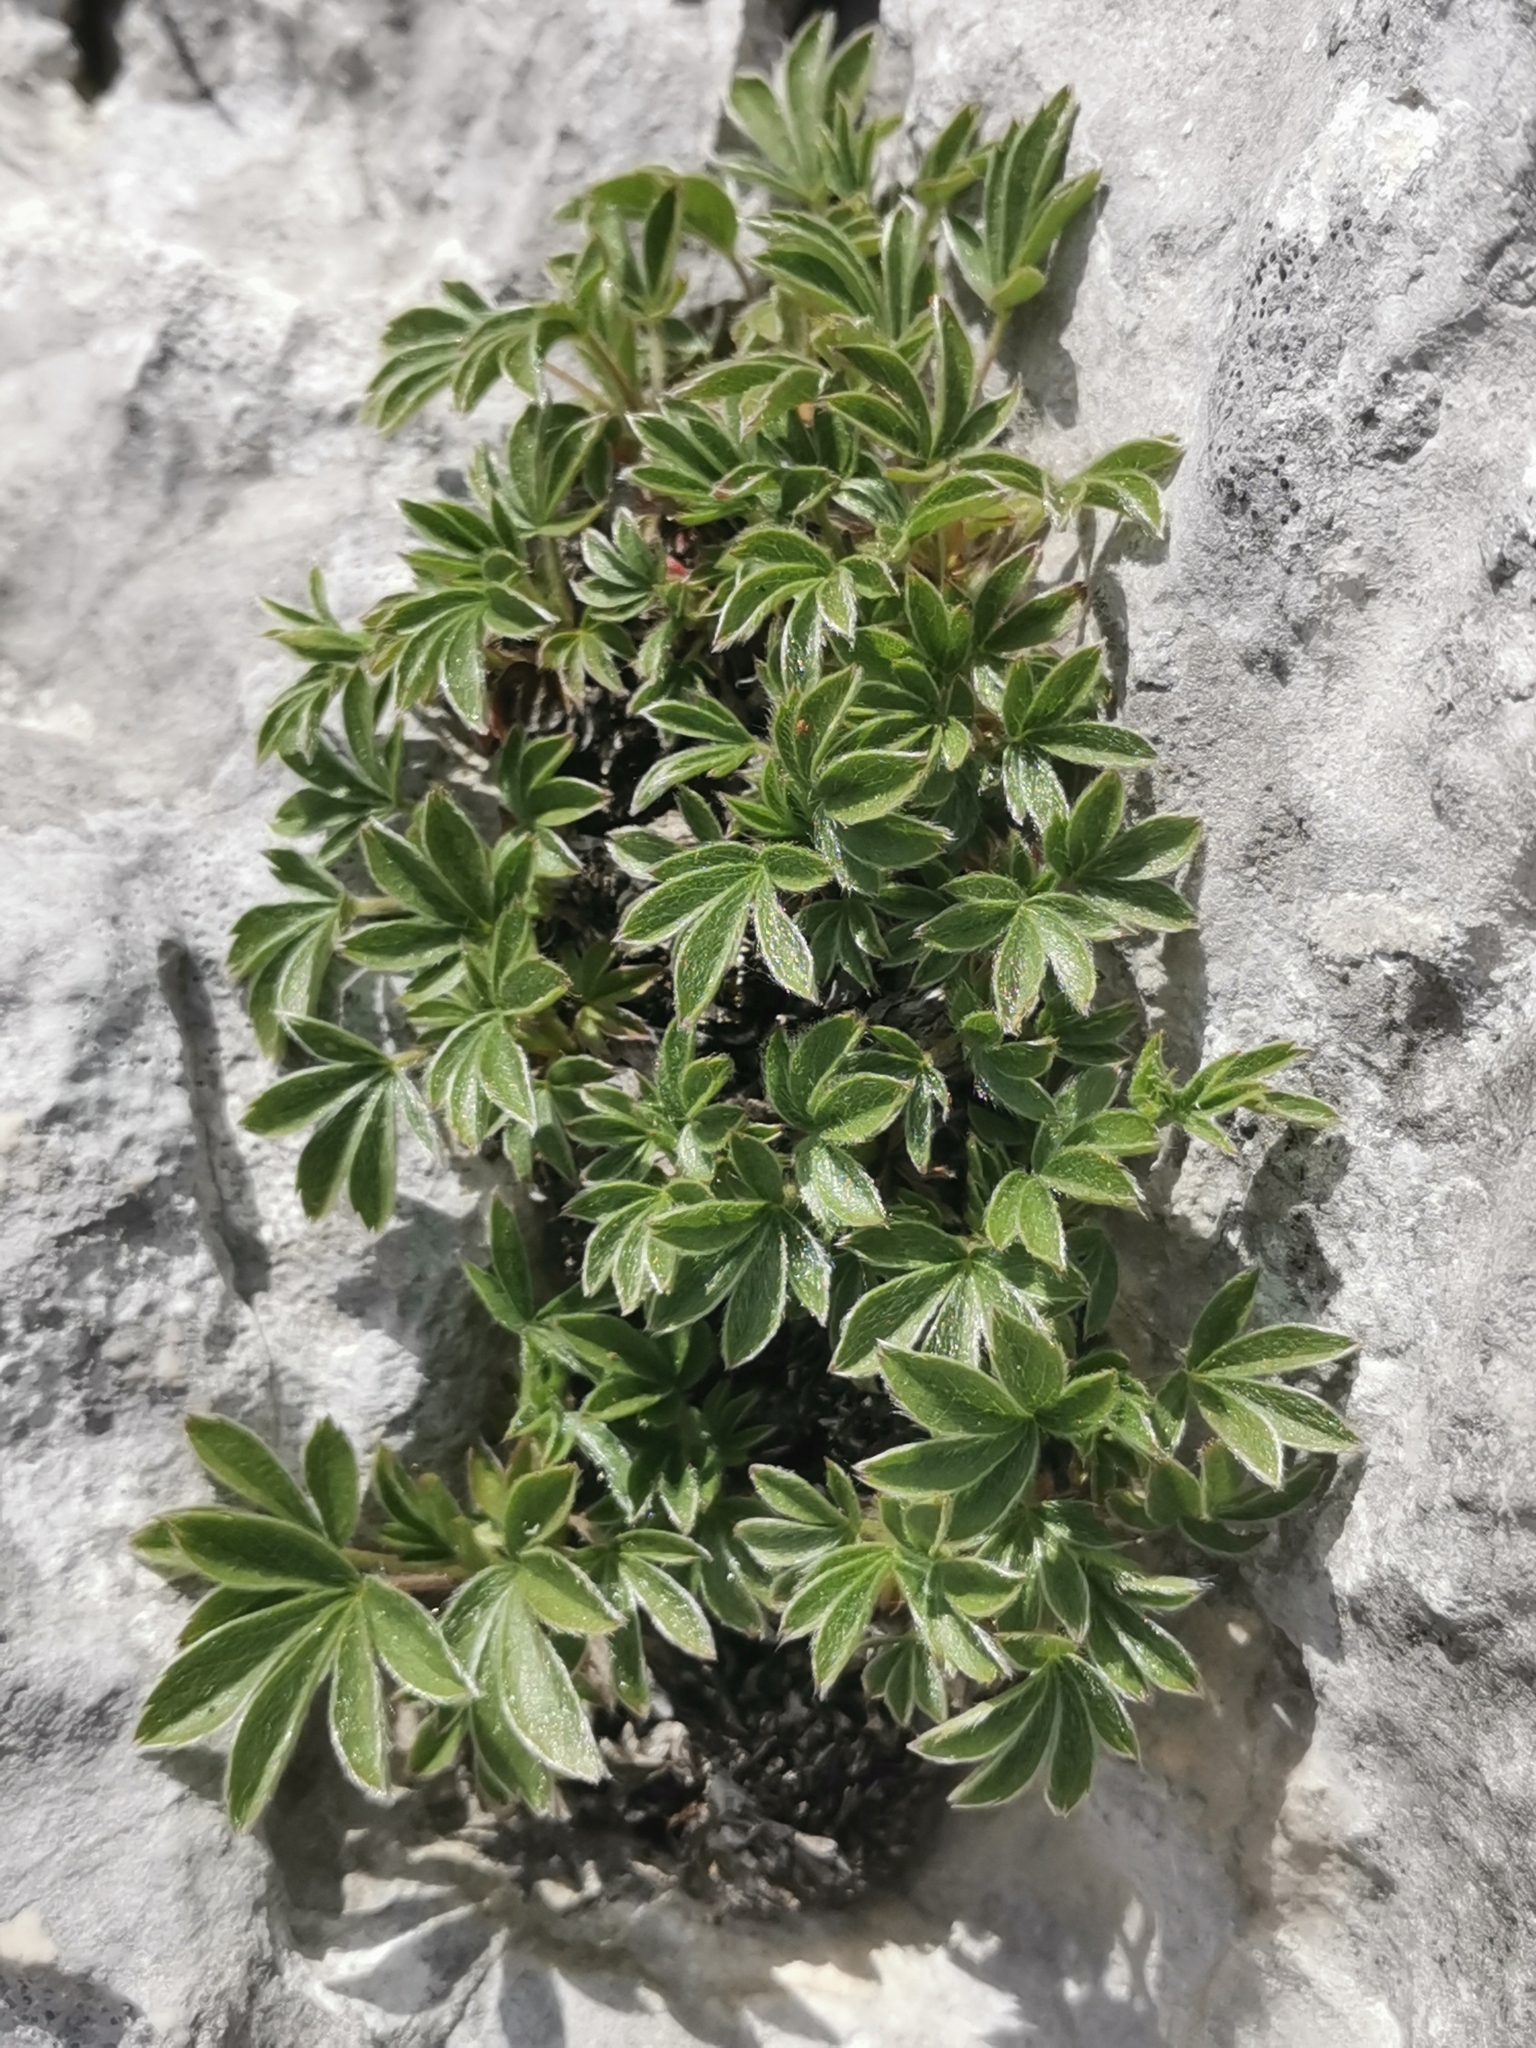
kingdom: Plantae
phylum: Tracheophyta
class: Magnoliopsida
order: Rosales
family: Rosaceae
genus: Potentilla
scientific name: Potentilla clusiana
